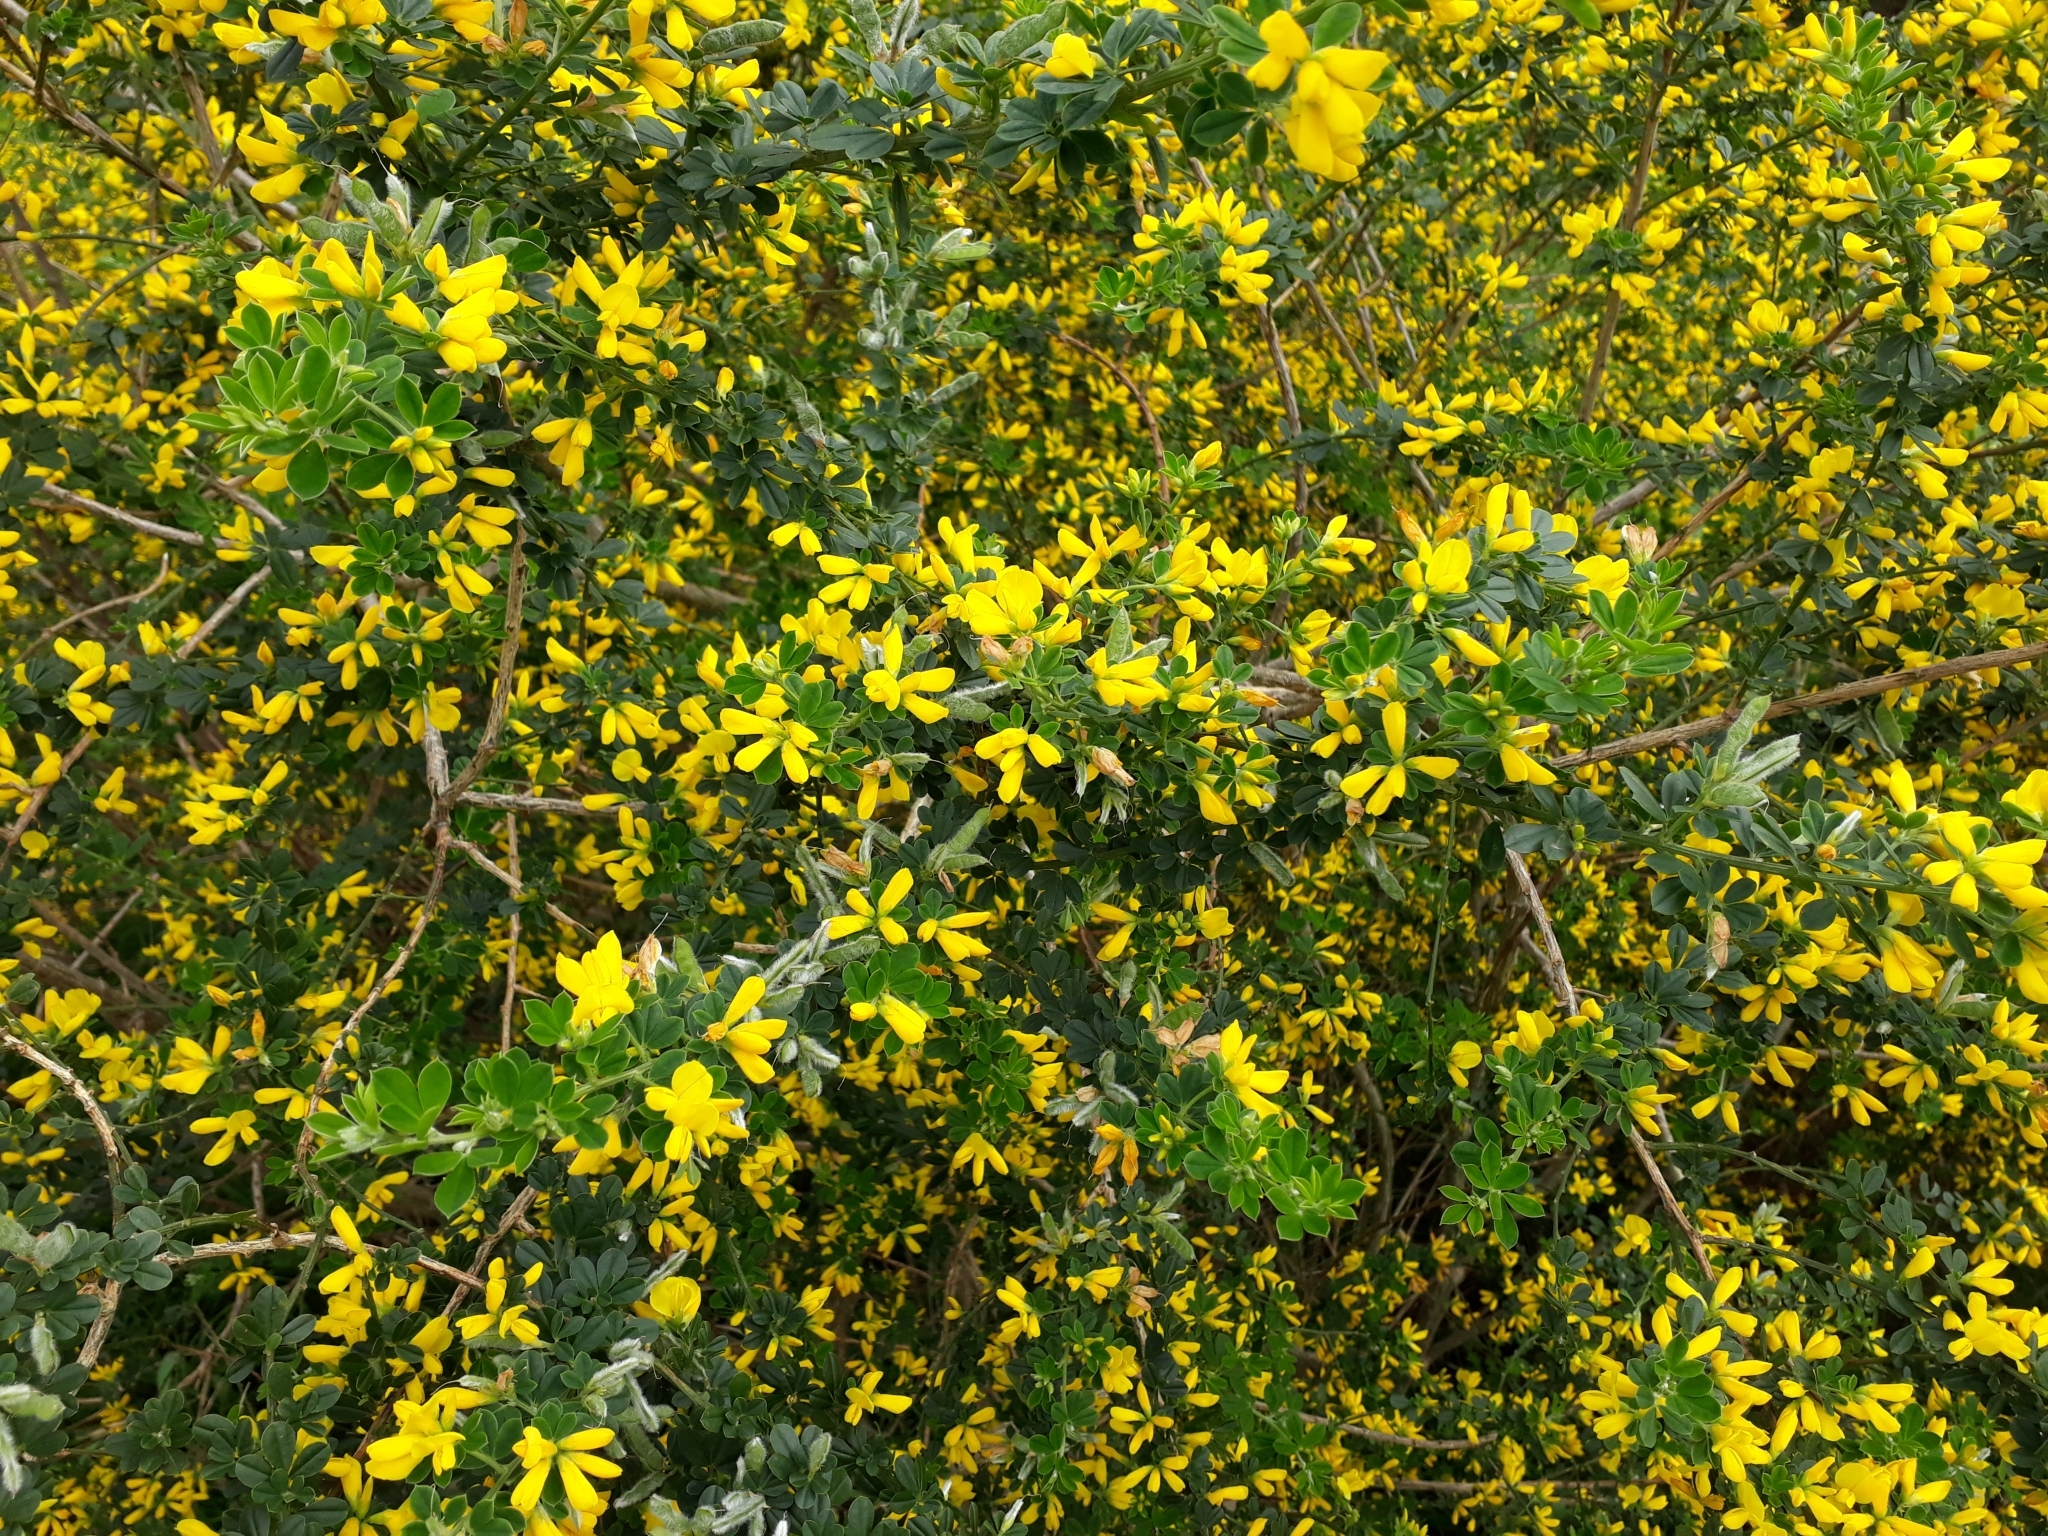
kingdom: Plantae
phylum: Tracheophyta
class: Magnoliopsida
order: Fabales
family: Fabaceae
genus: Genista
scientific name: Genista monspessulana
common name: Montpellier broom
